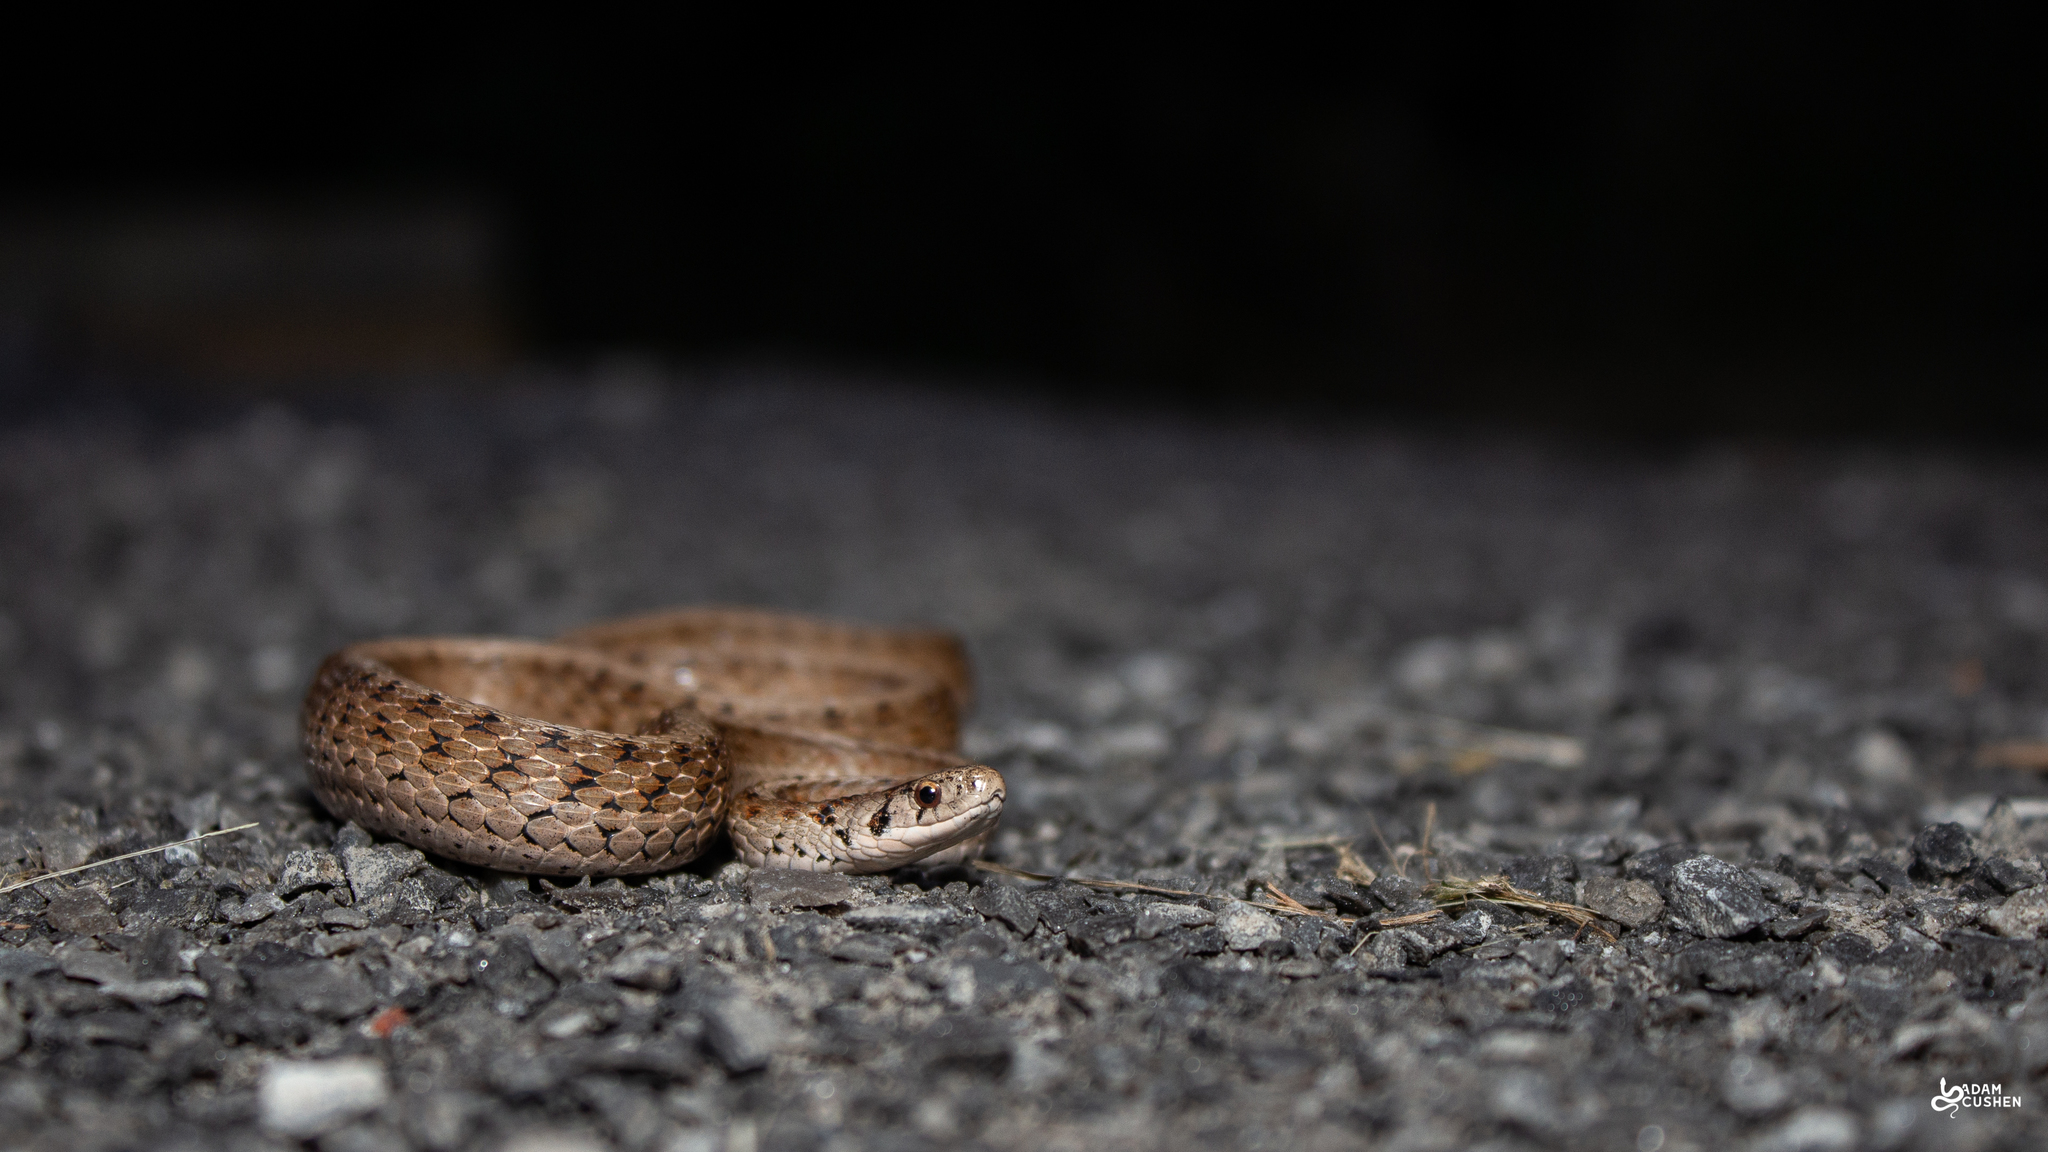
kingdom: Animalia
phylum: Chordata
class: Squamata
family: Colubridae
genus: Storeria
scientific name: Storeria dekayi
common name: (dekay’s) brown snake
